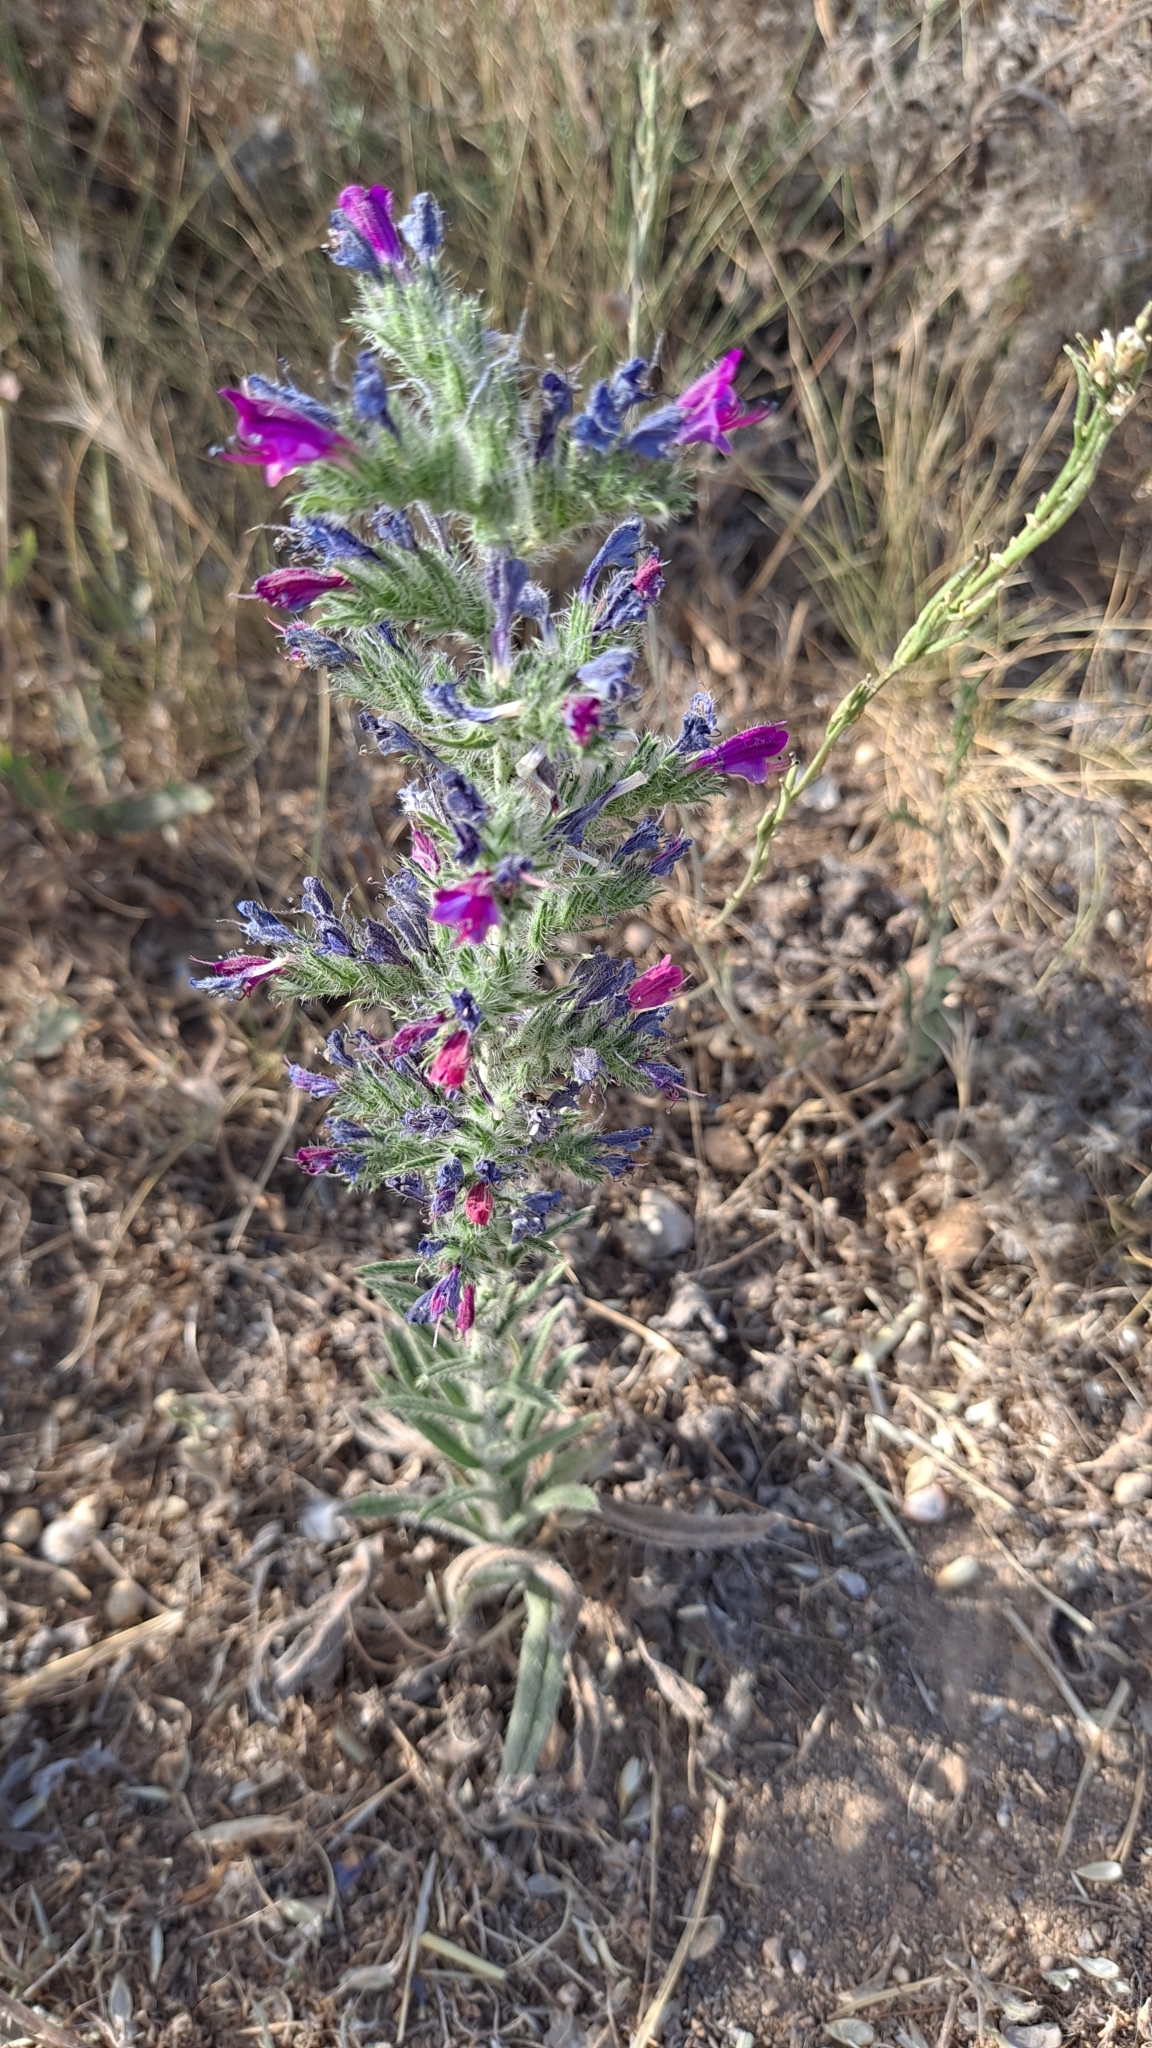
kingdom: Plantae
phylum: Tracheophyta
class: Magnoliopsida
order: Boraginales
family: Boraginaceae
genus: Echium
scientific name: Echium vulgare
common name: Common viper's bugloss
